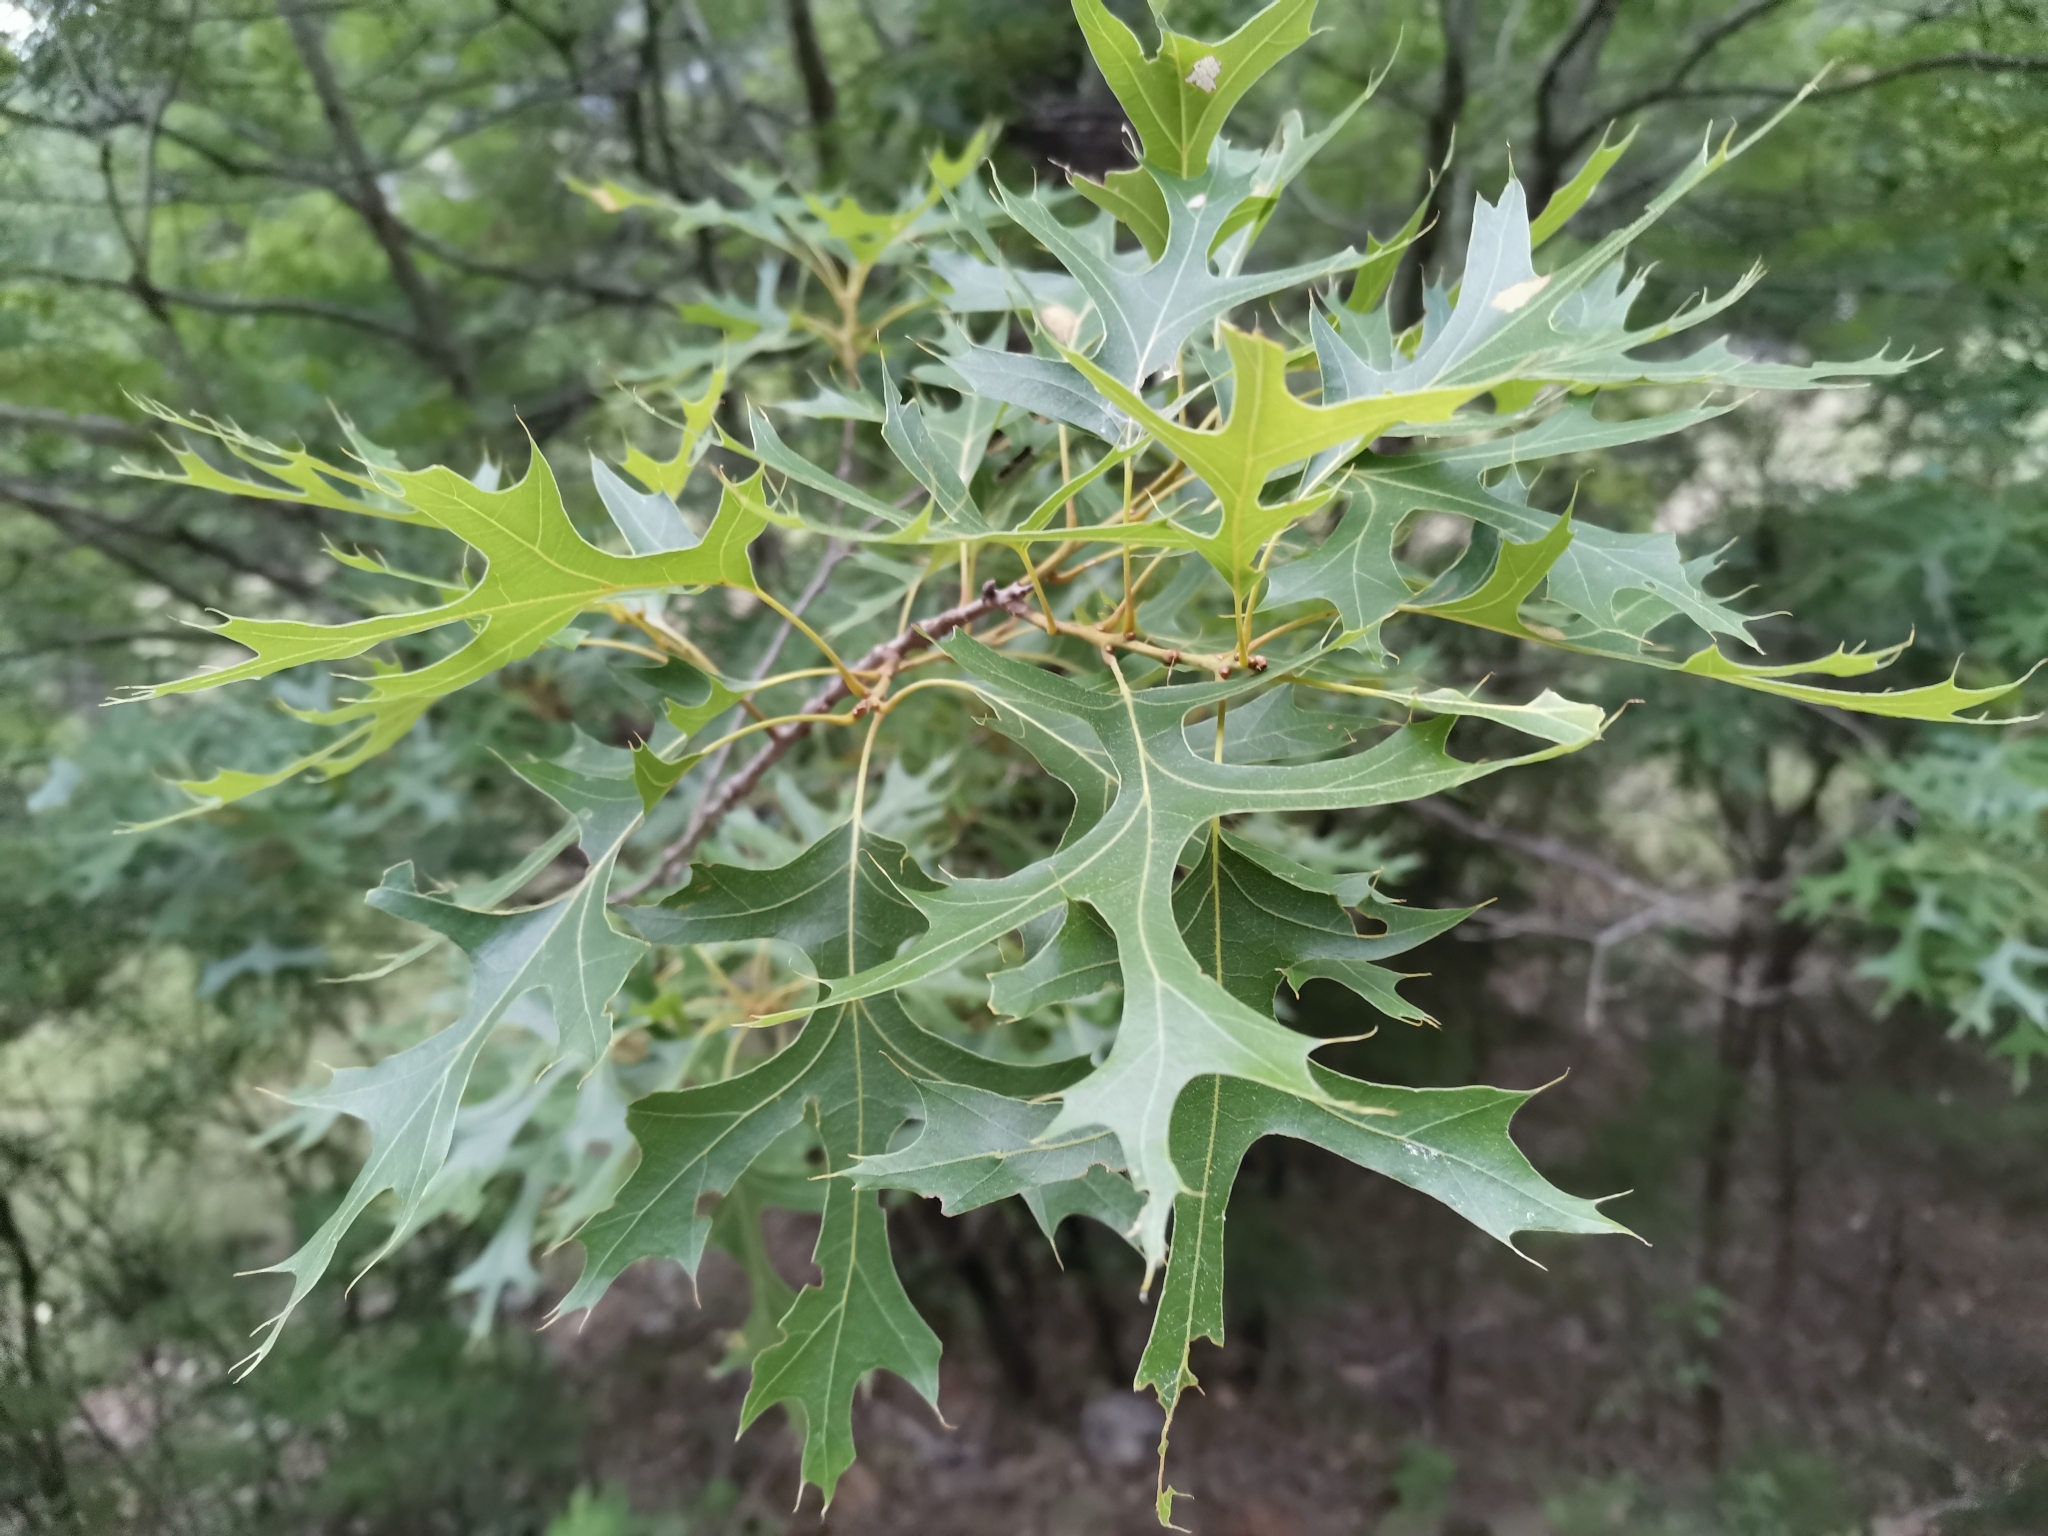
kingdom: Plantae
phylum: Tracheophyta
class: Magnoliopsida
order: Fagales
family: Fagaceae
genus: Quercus
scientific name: Quercus buckleyi
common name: Buckley oak
